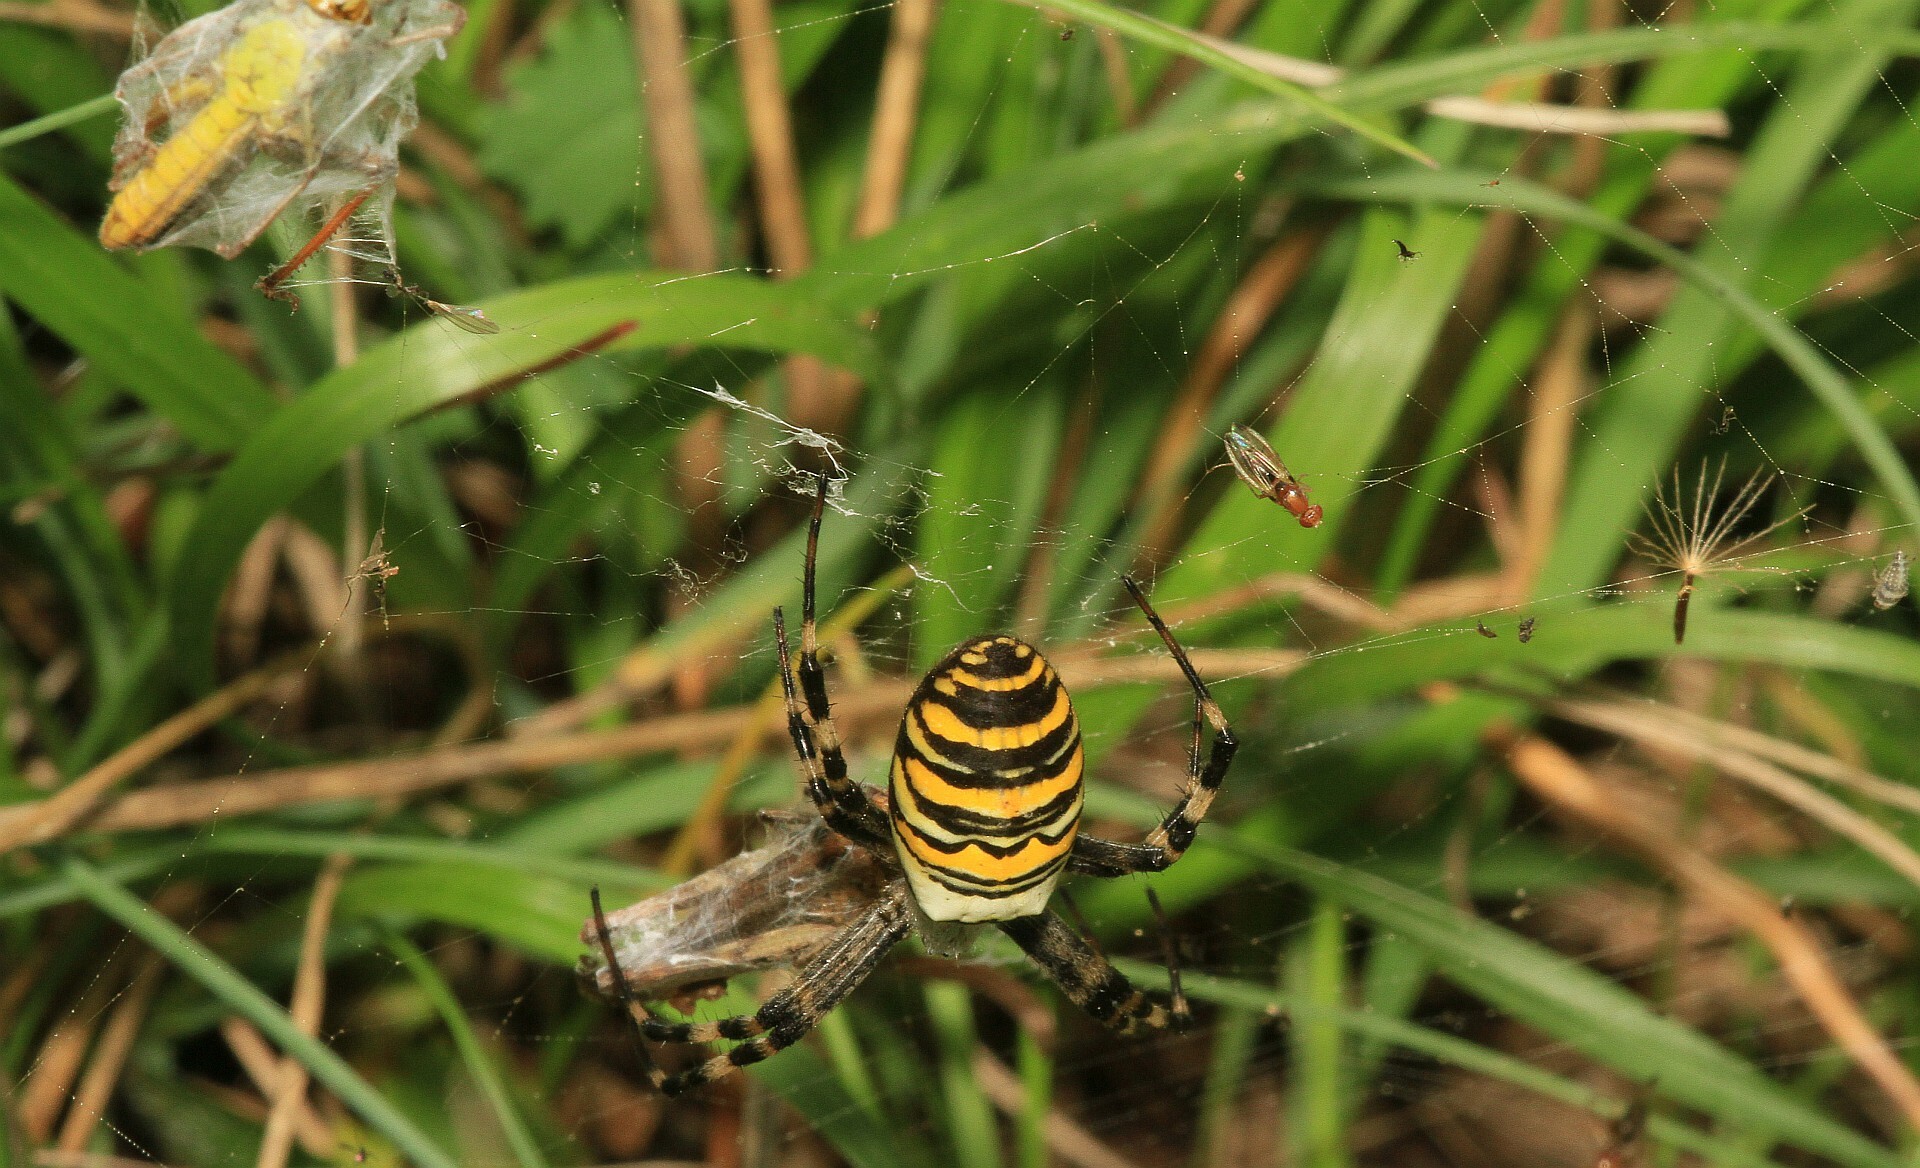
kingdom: Animalia
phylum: Arthropoda
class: Arachnida
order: Araneae
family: Araneidae
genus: Argiope
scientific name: Argiope bruennichi
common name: Wasp spider
